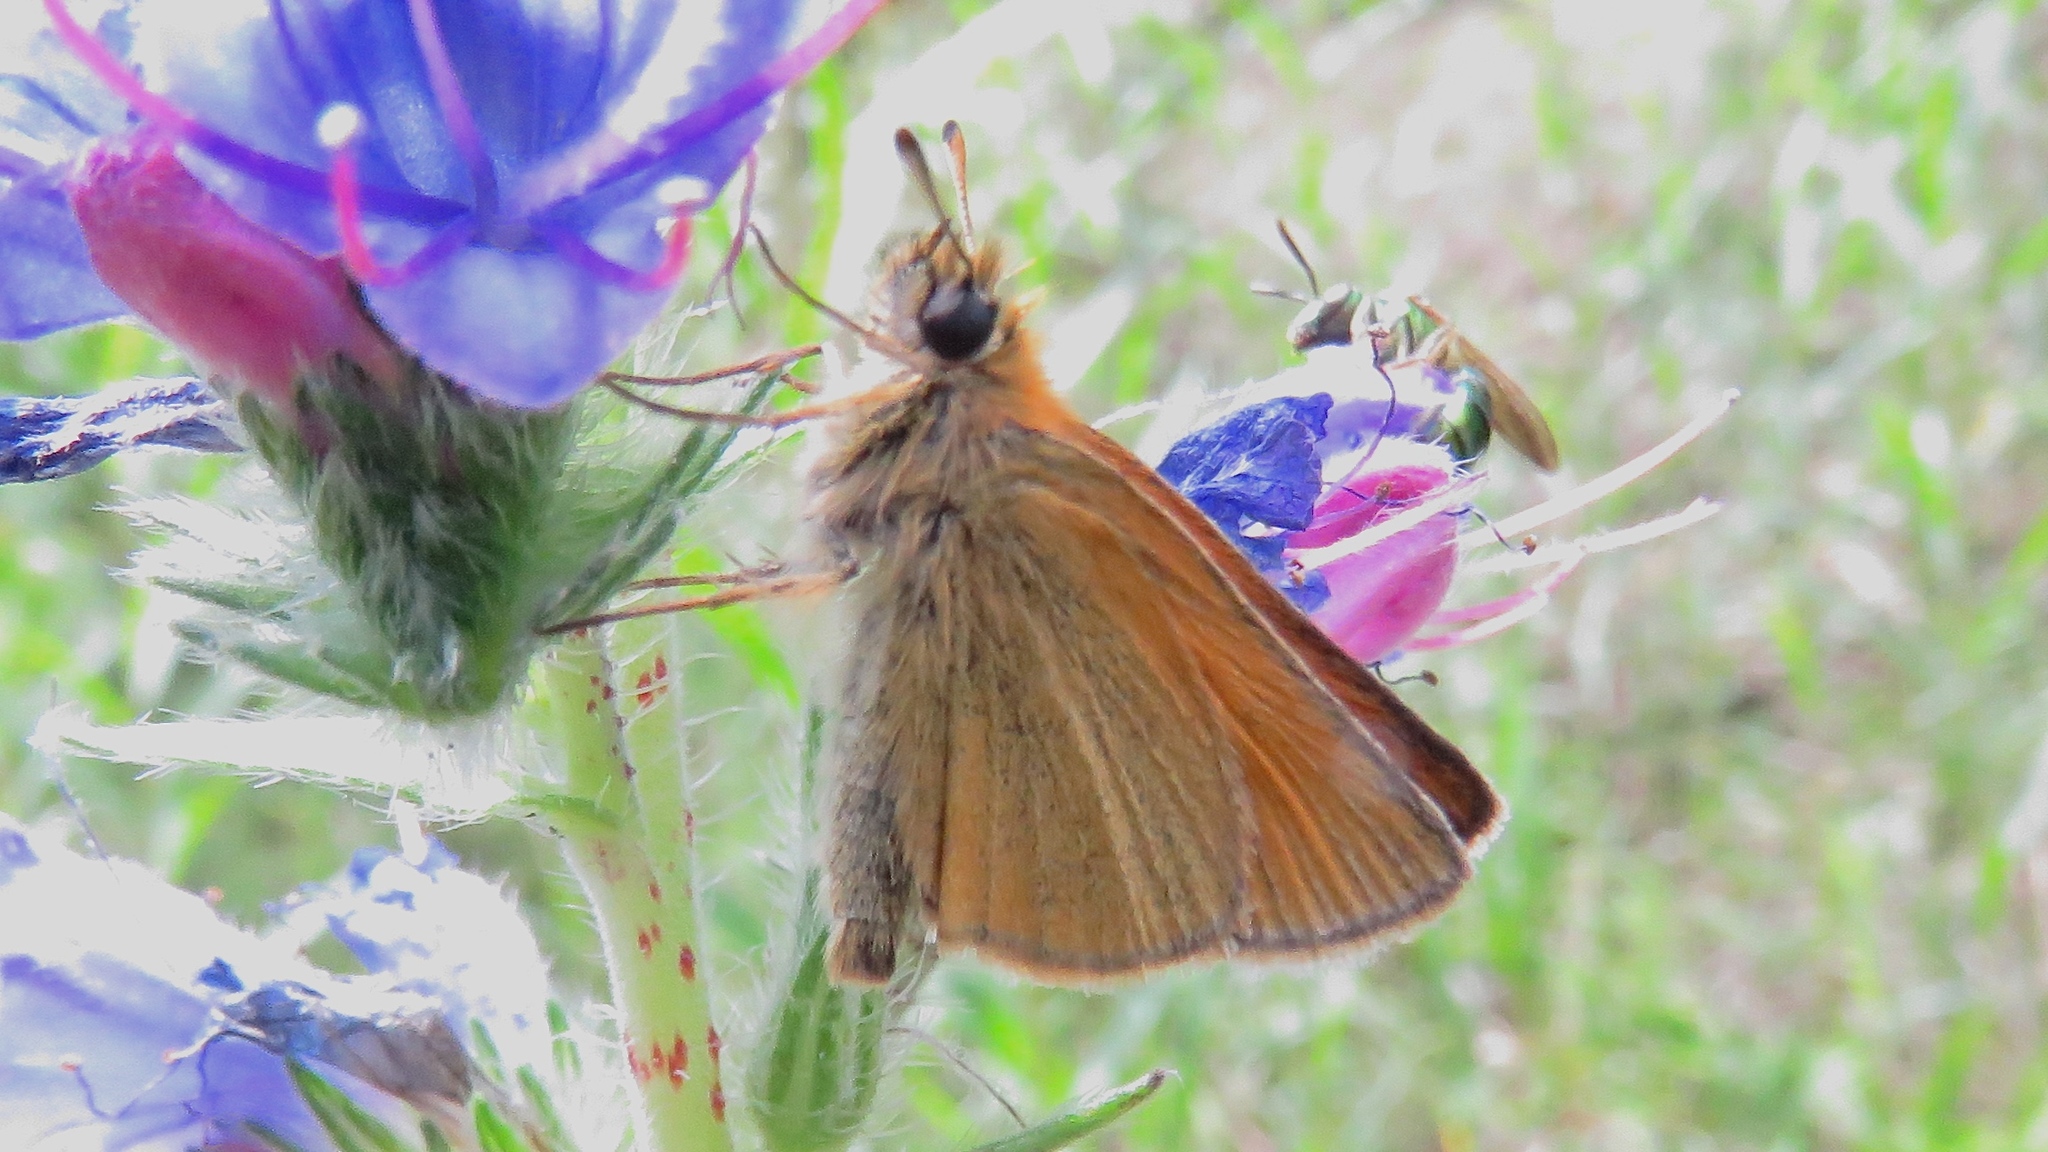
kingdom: Animalia
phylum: Arthropoda
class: Insecta
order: Lepidoptera
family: Hesperiidae
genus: Thymelicus
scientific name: Thymelicus lineola
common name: Essex skipper
